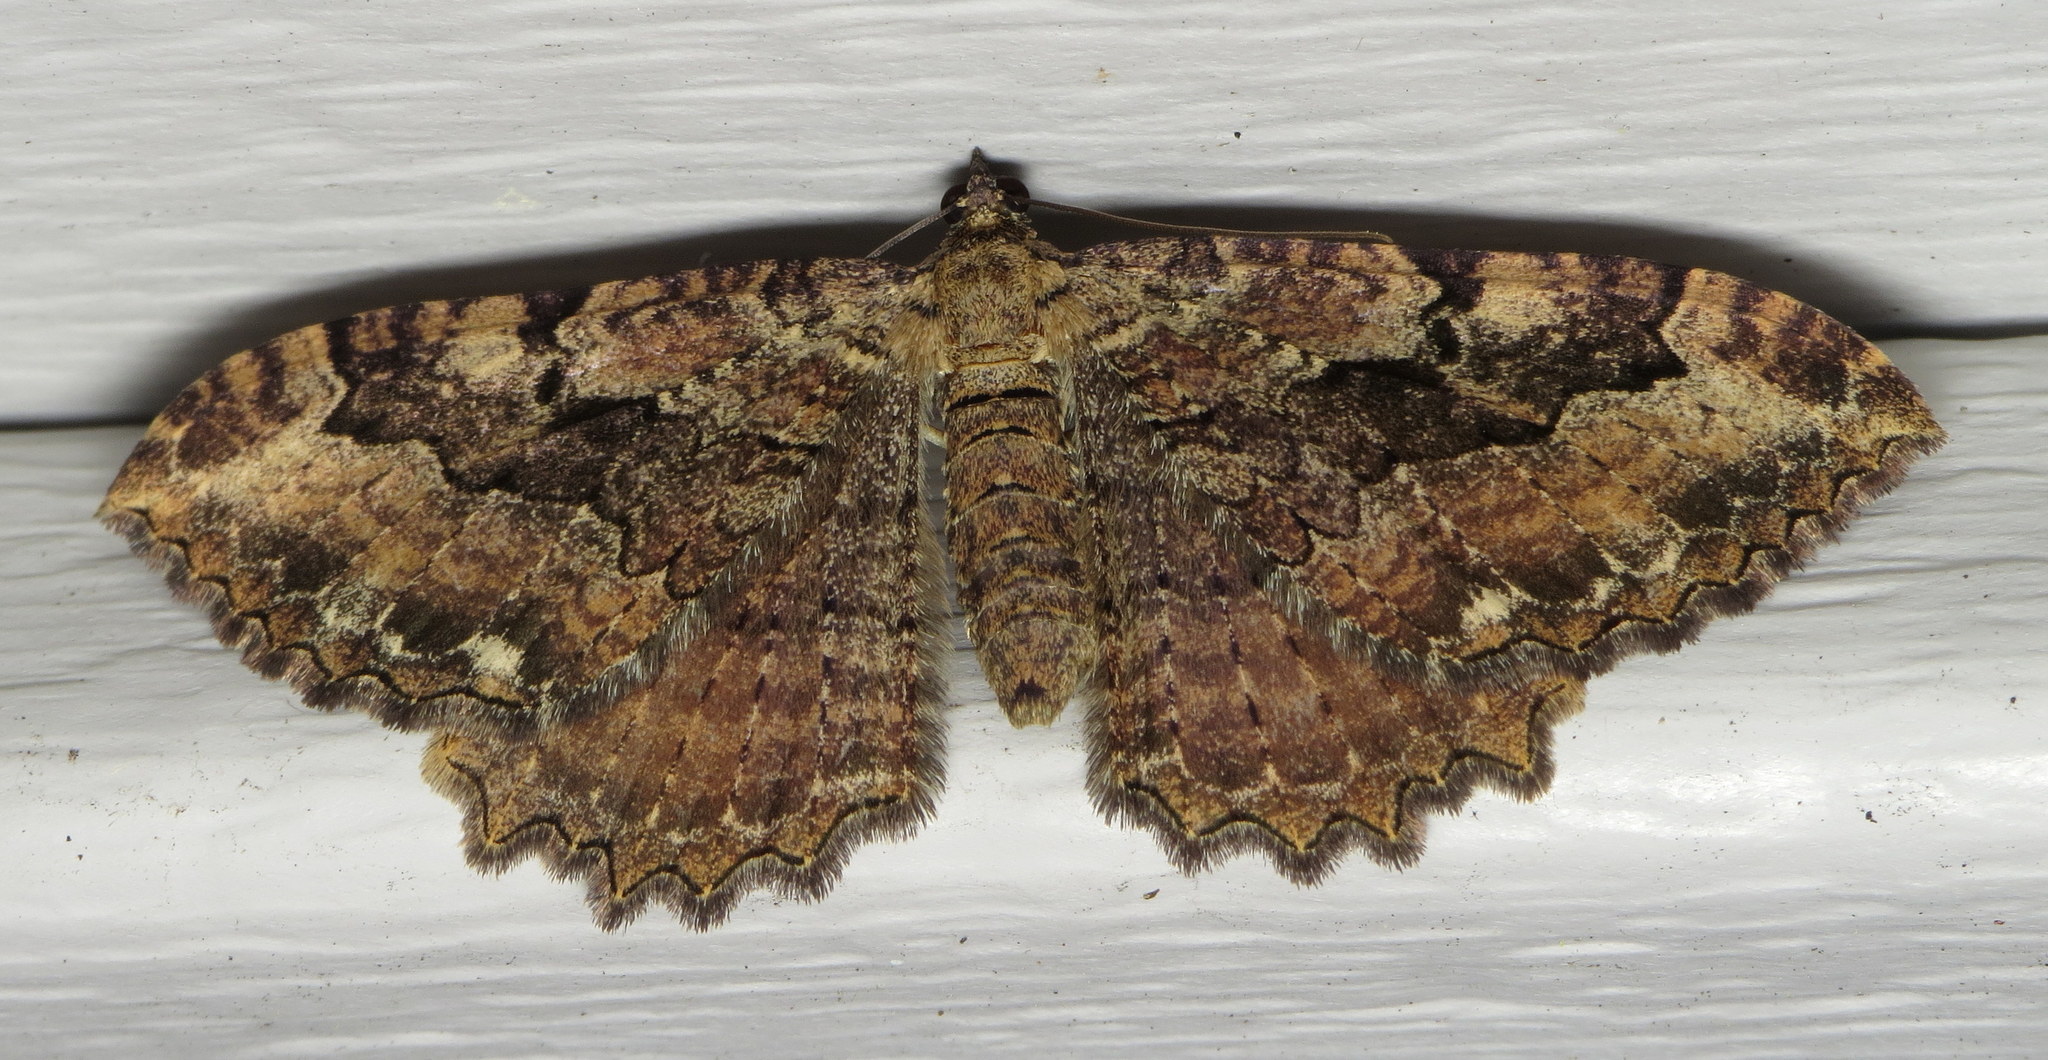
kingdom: Animalia
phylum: Arthropoda
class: Insecta
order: Lepidoptera
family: Geometridae
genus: Rheumaptera
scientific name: Rheumaptera
